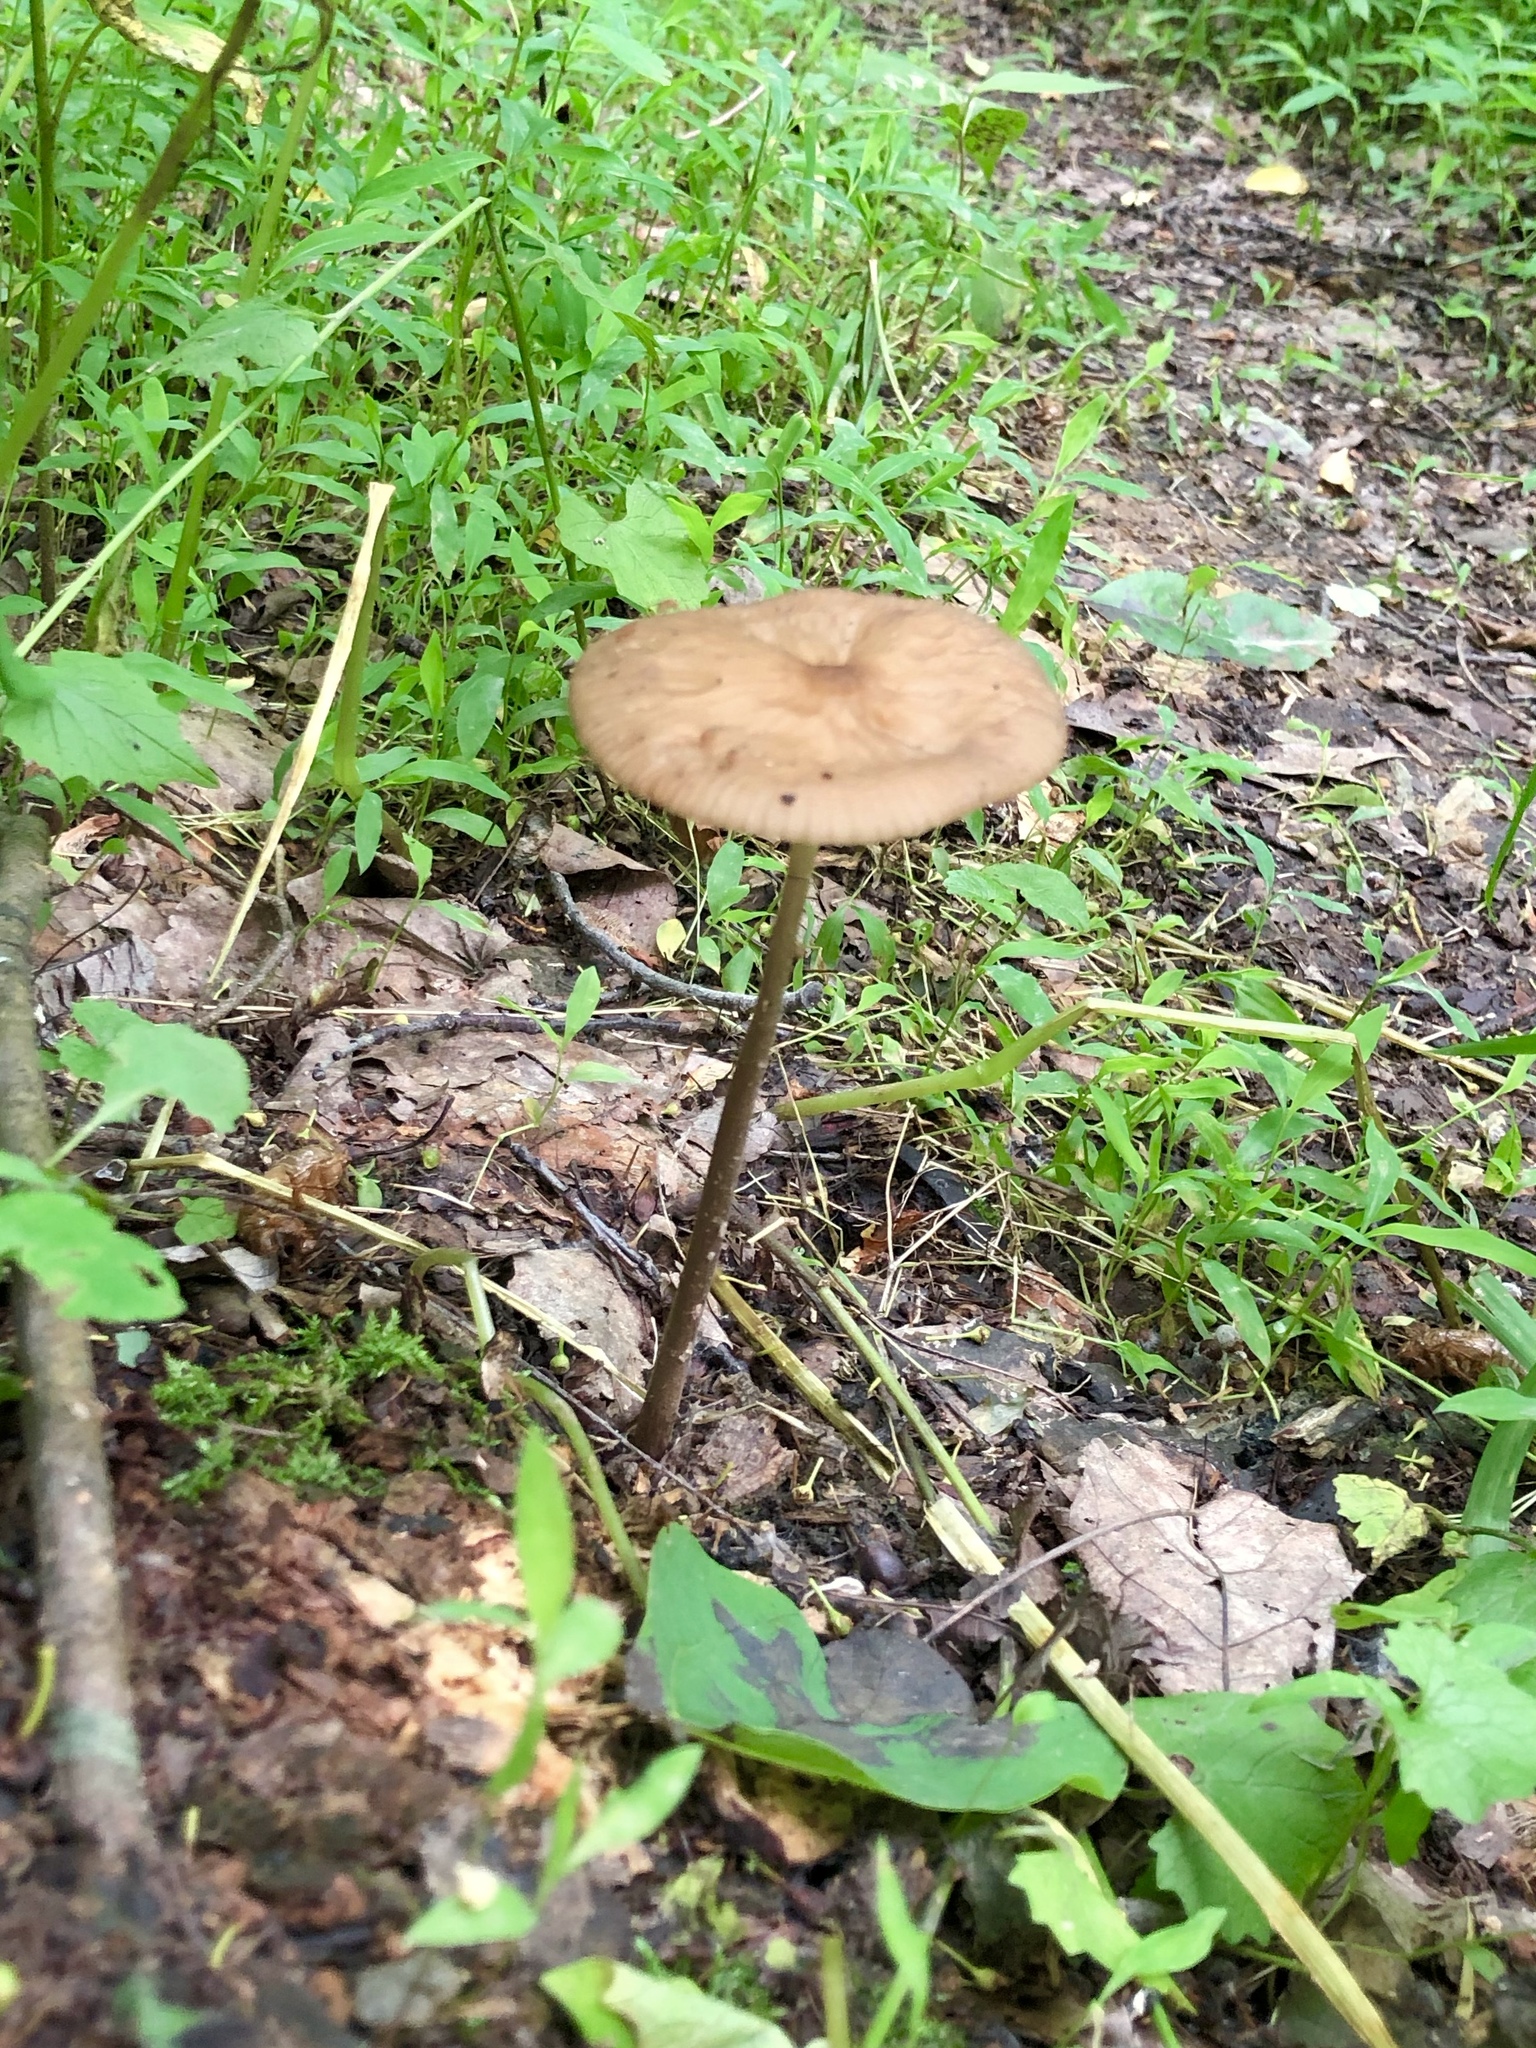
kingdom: Fungi
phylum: Basidiomycota
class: Agaricomycetes
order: Agaricales
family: Physalacriaceae
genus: Hymenopellis
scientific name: Hymenopellis furfuracea
